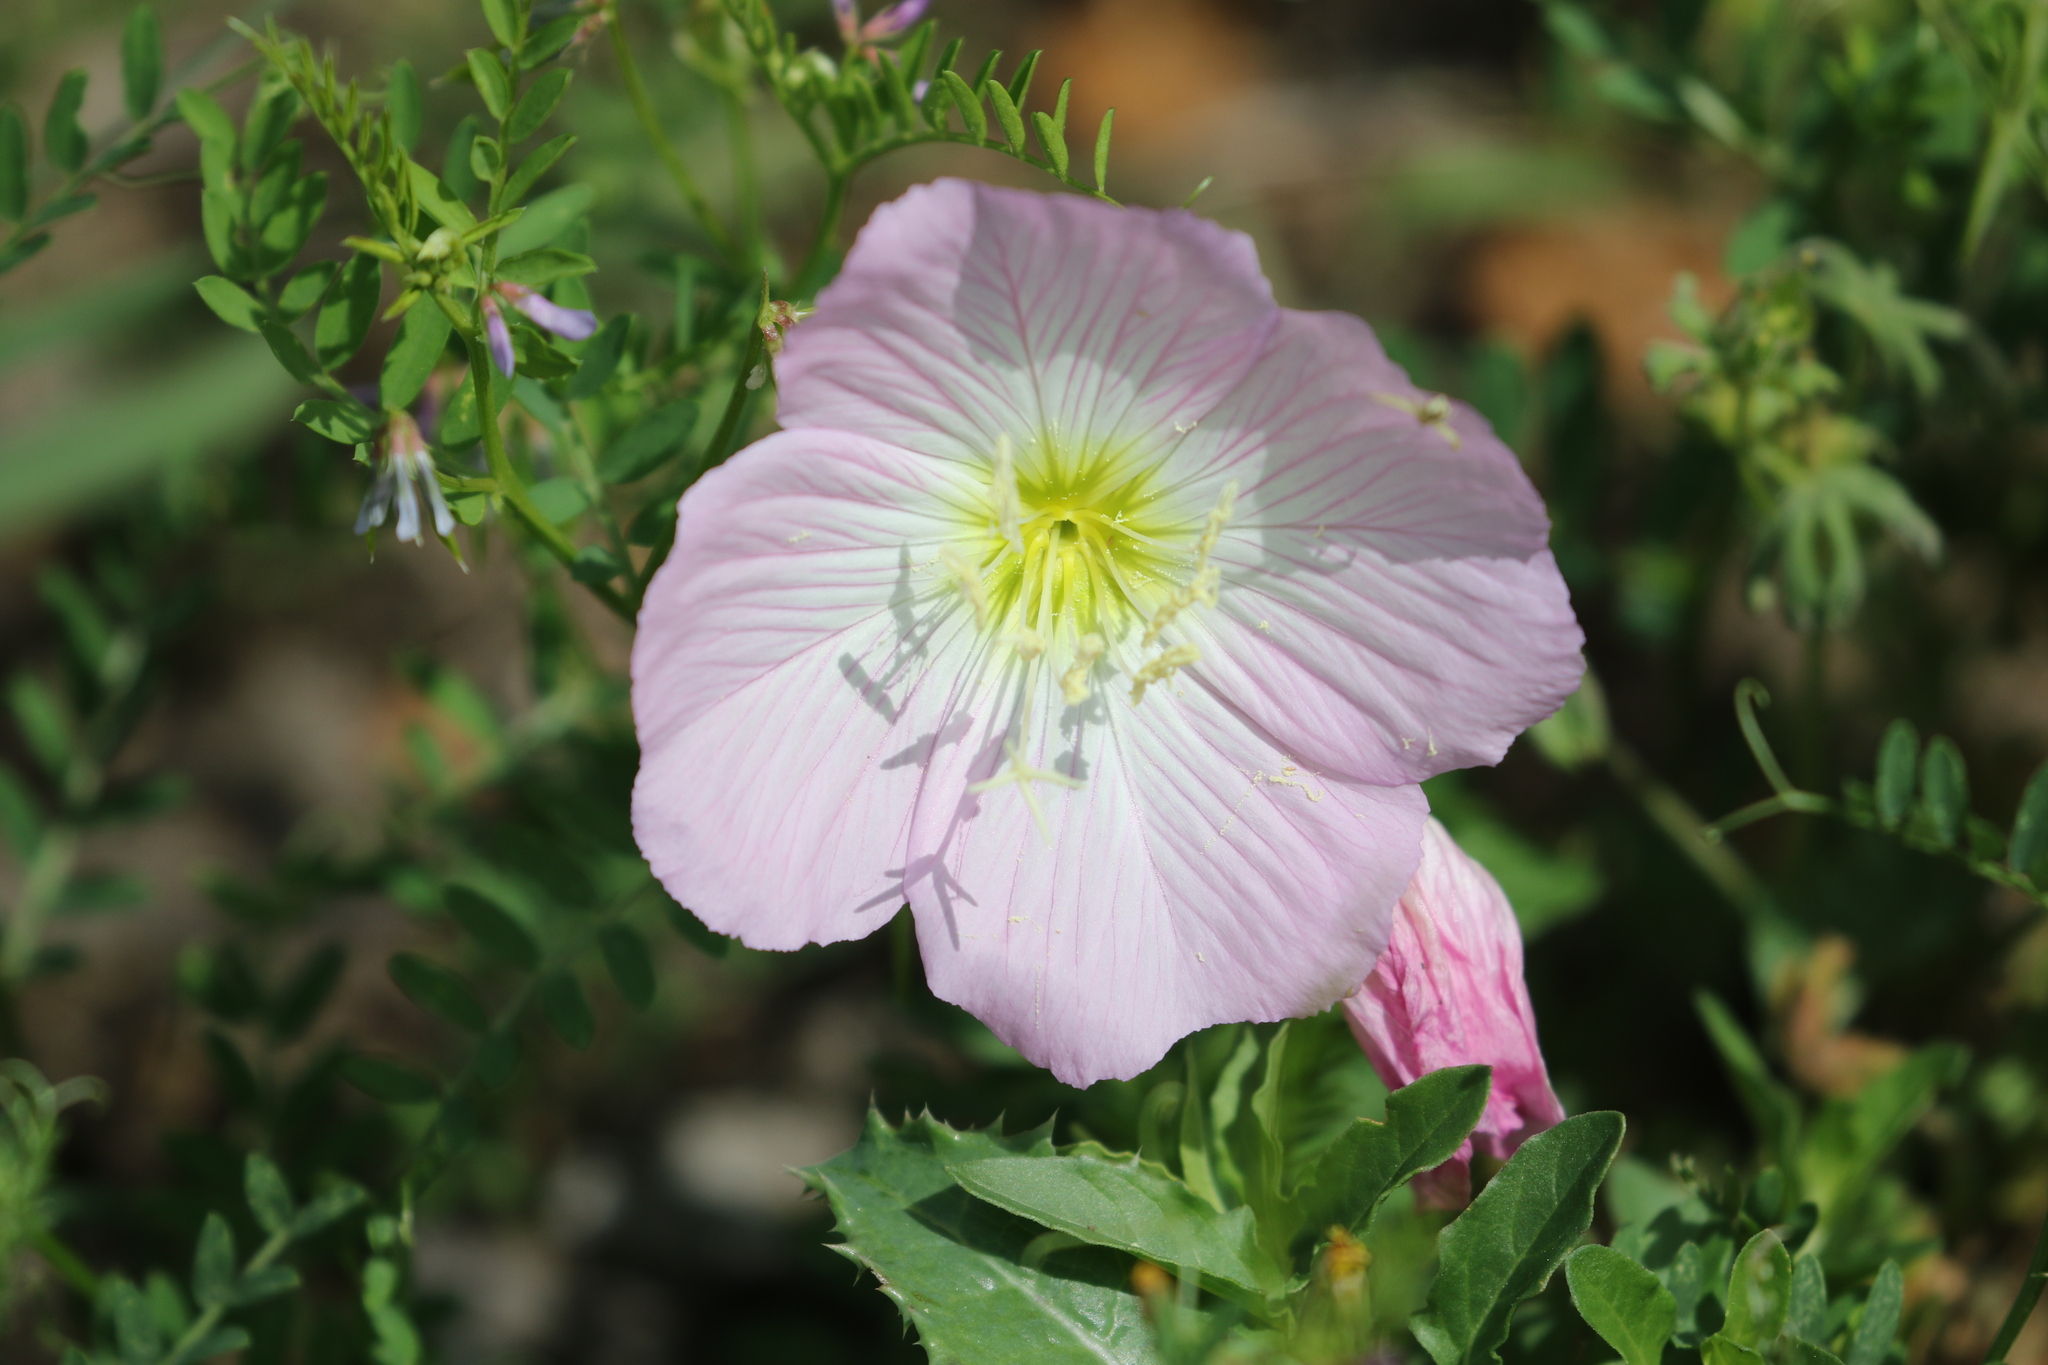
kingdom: Plantae
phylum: Tracheophyta
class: Magnoliopsida
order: Myrtales
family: Onagraceae
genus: Oenothera
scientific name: Oenothera speciosa
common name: White evening-primrose
